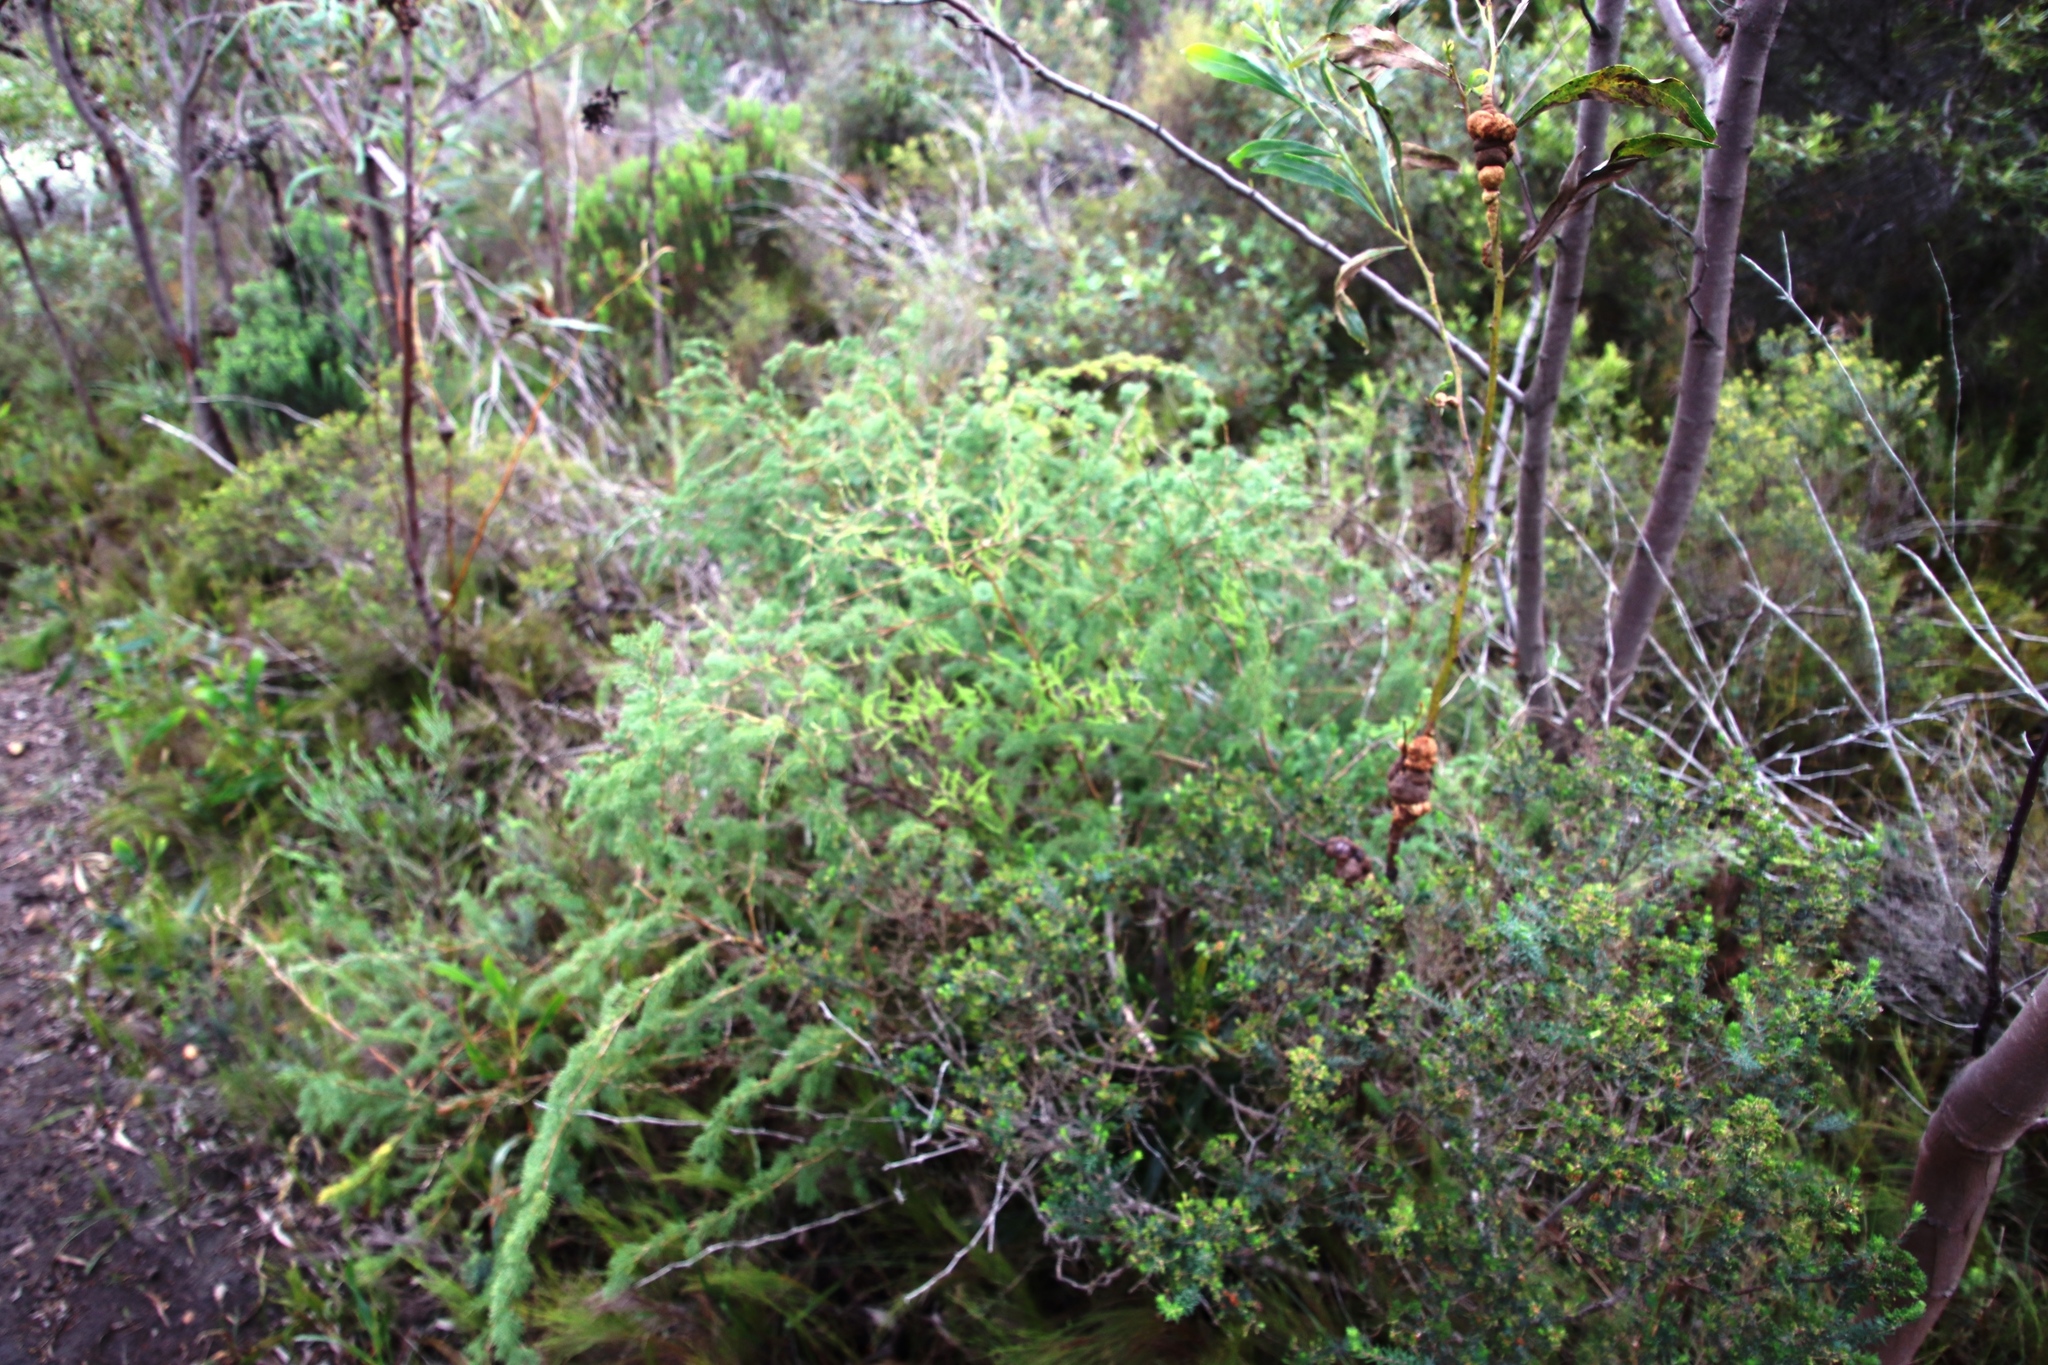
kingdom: Plantae
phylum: Tracheophyta
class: Liliopsida
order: Asparagales
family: Asparagaceae
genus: Asparagus
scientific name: Asparagus rubicundus
